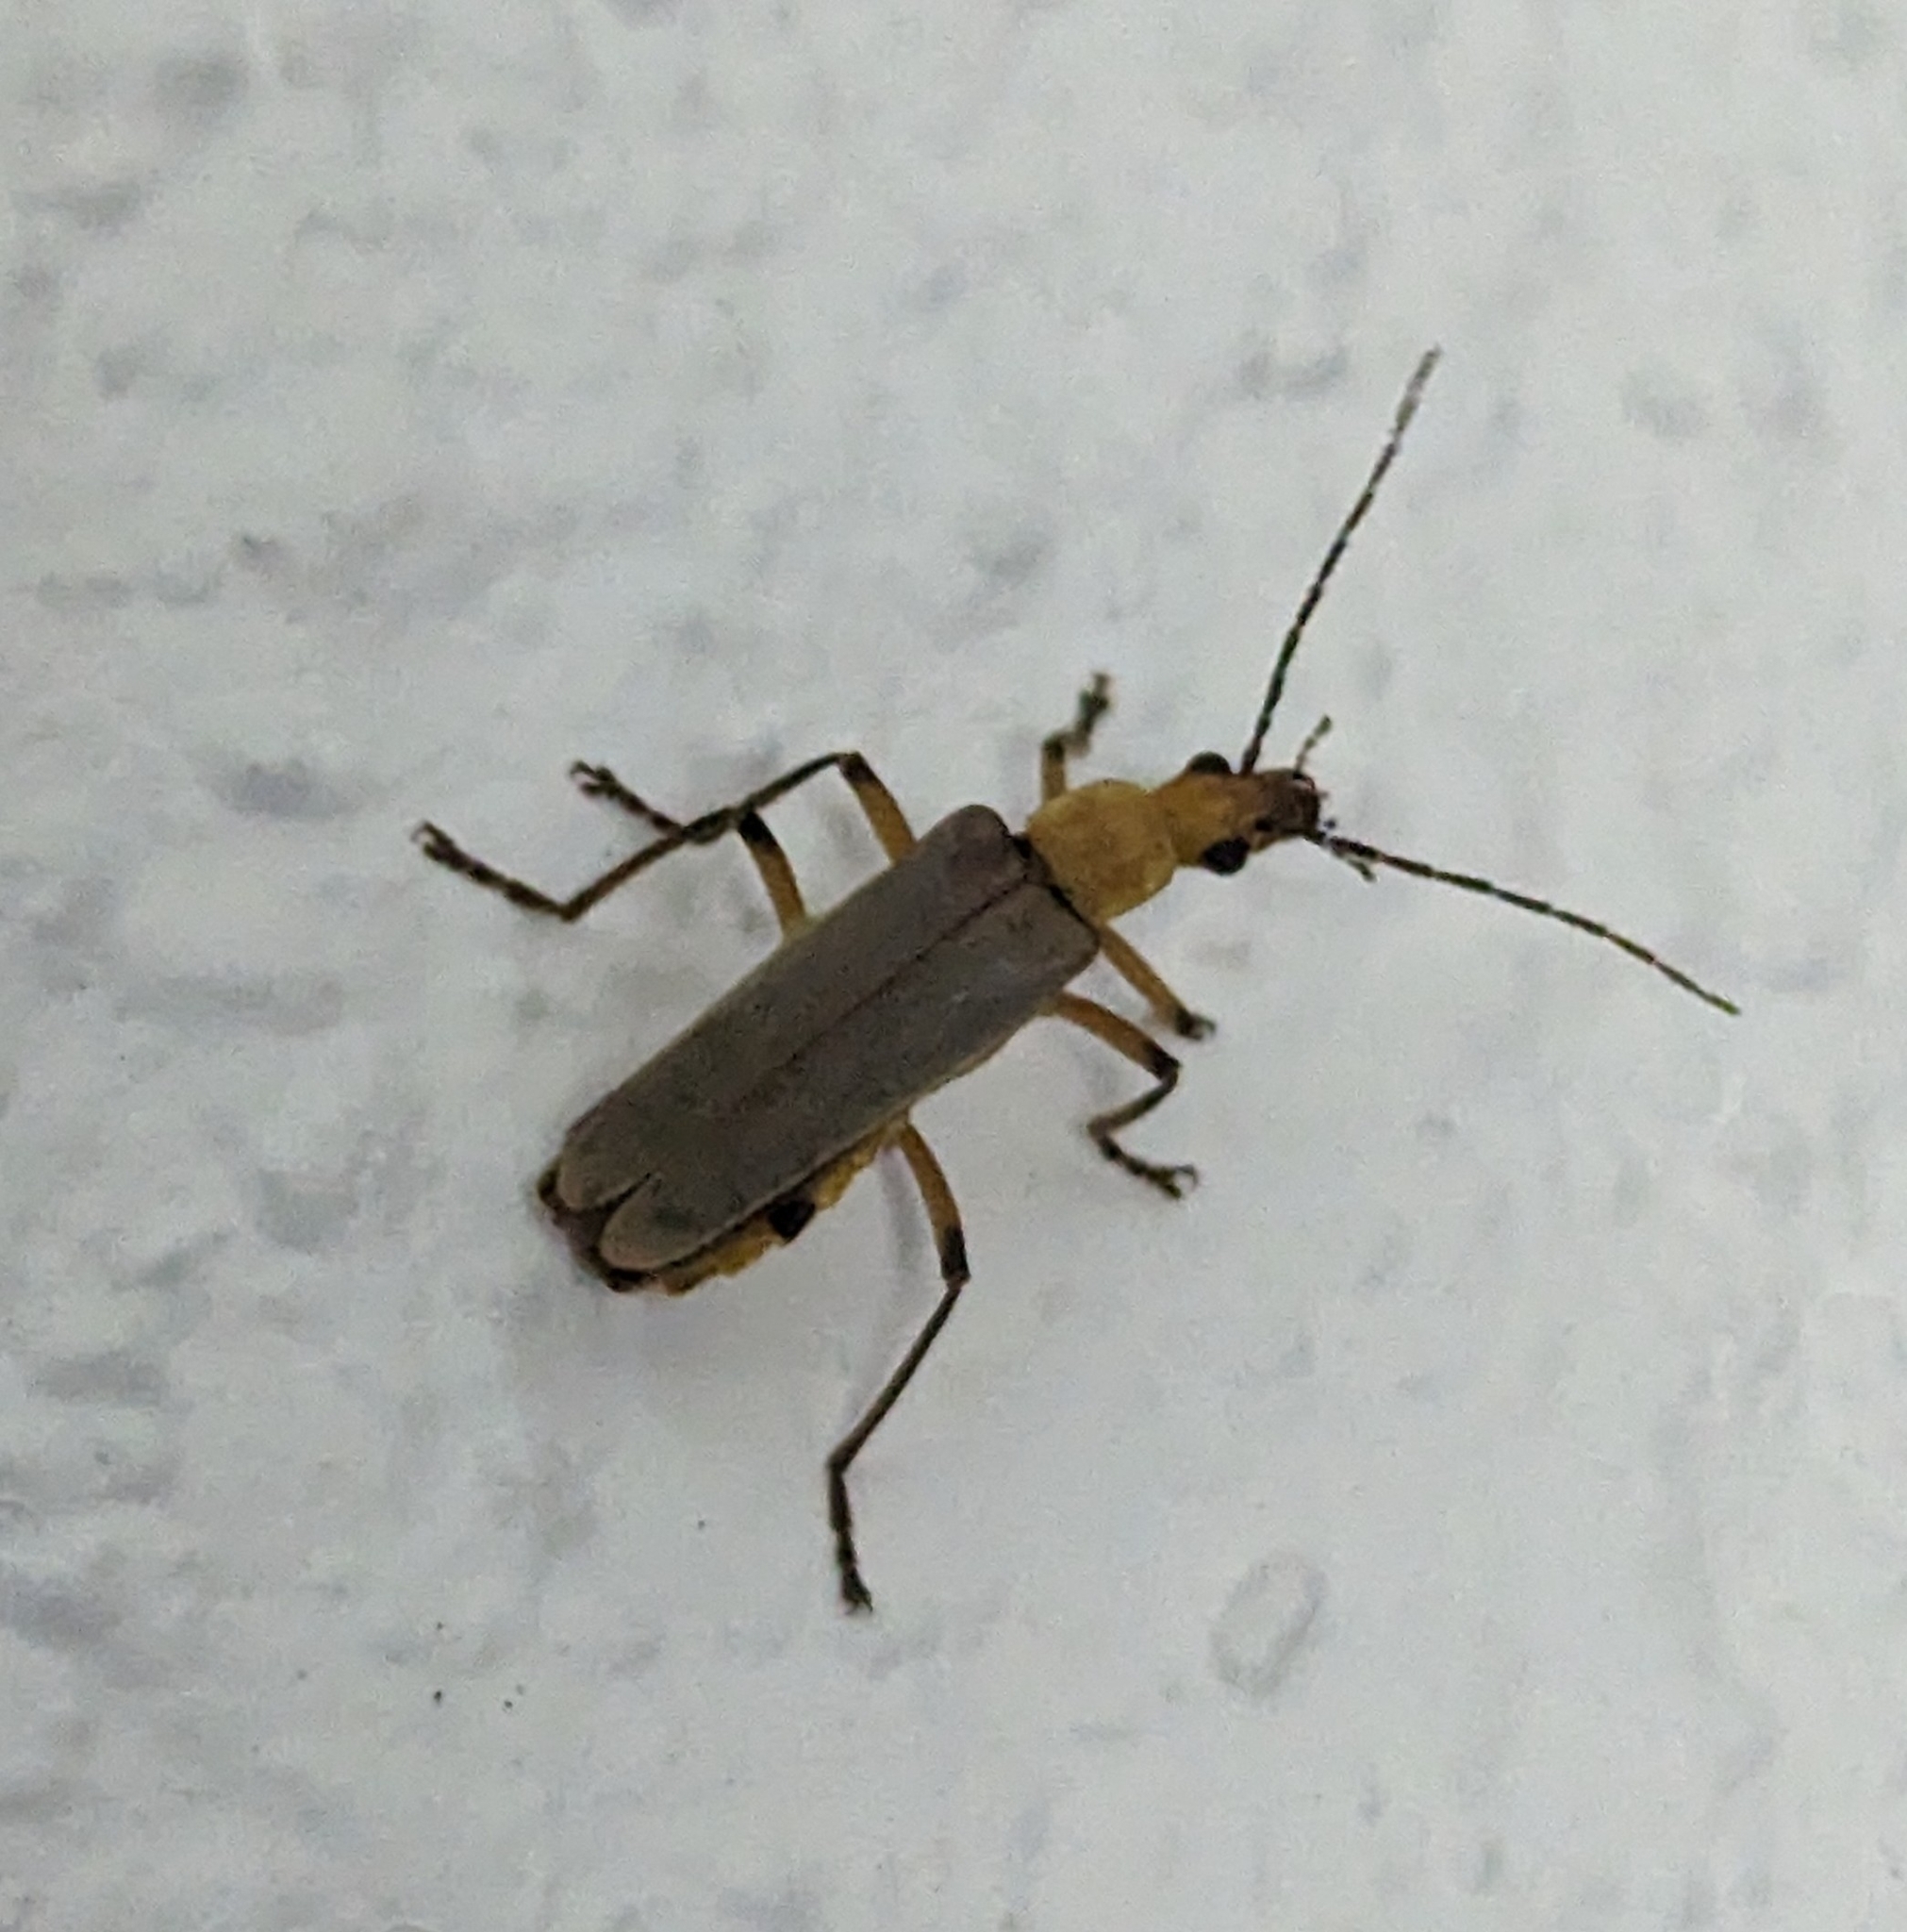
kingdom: Animalia
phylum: Arthropoda
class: Insecta
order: Coleoptera
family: Cantharidae
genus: Chauliognathus
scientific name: Chauliognathus
